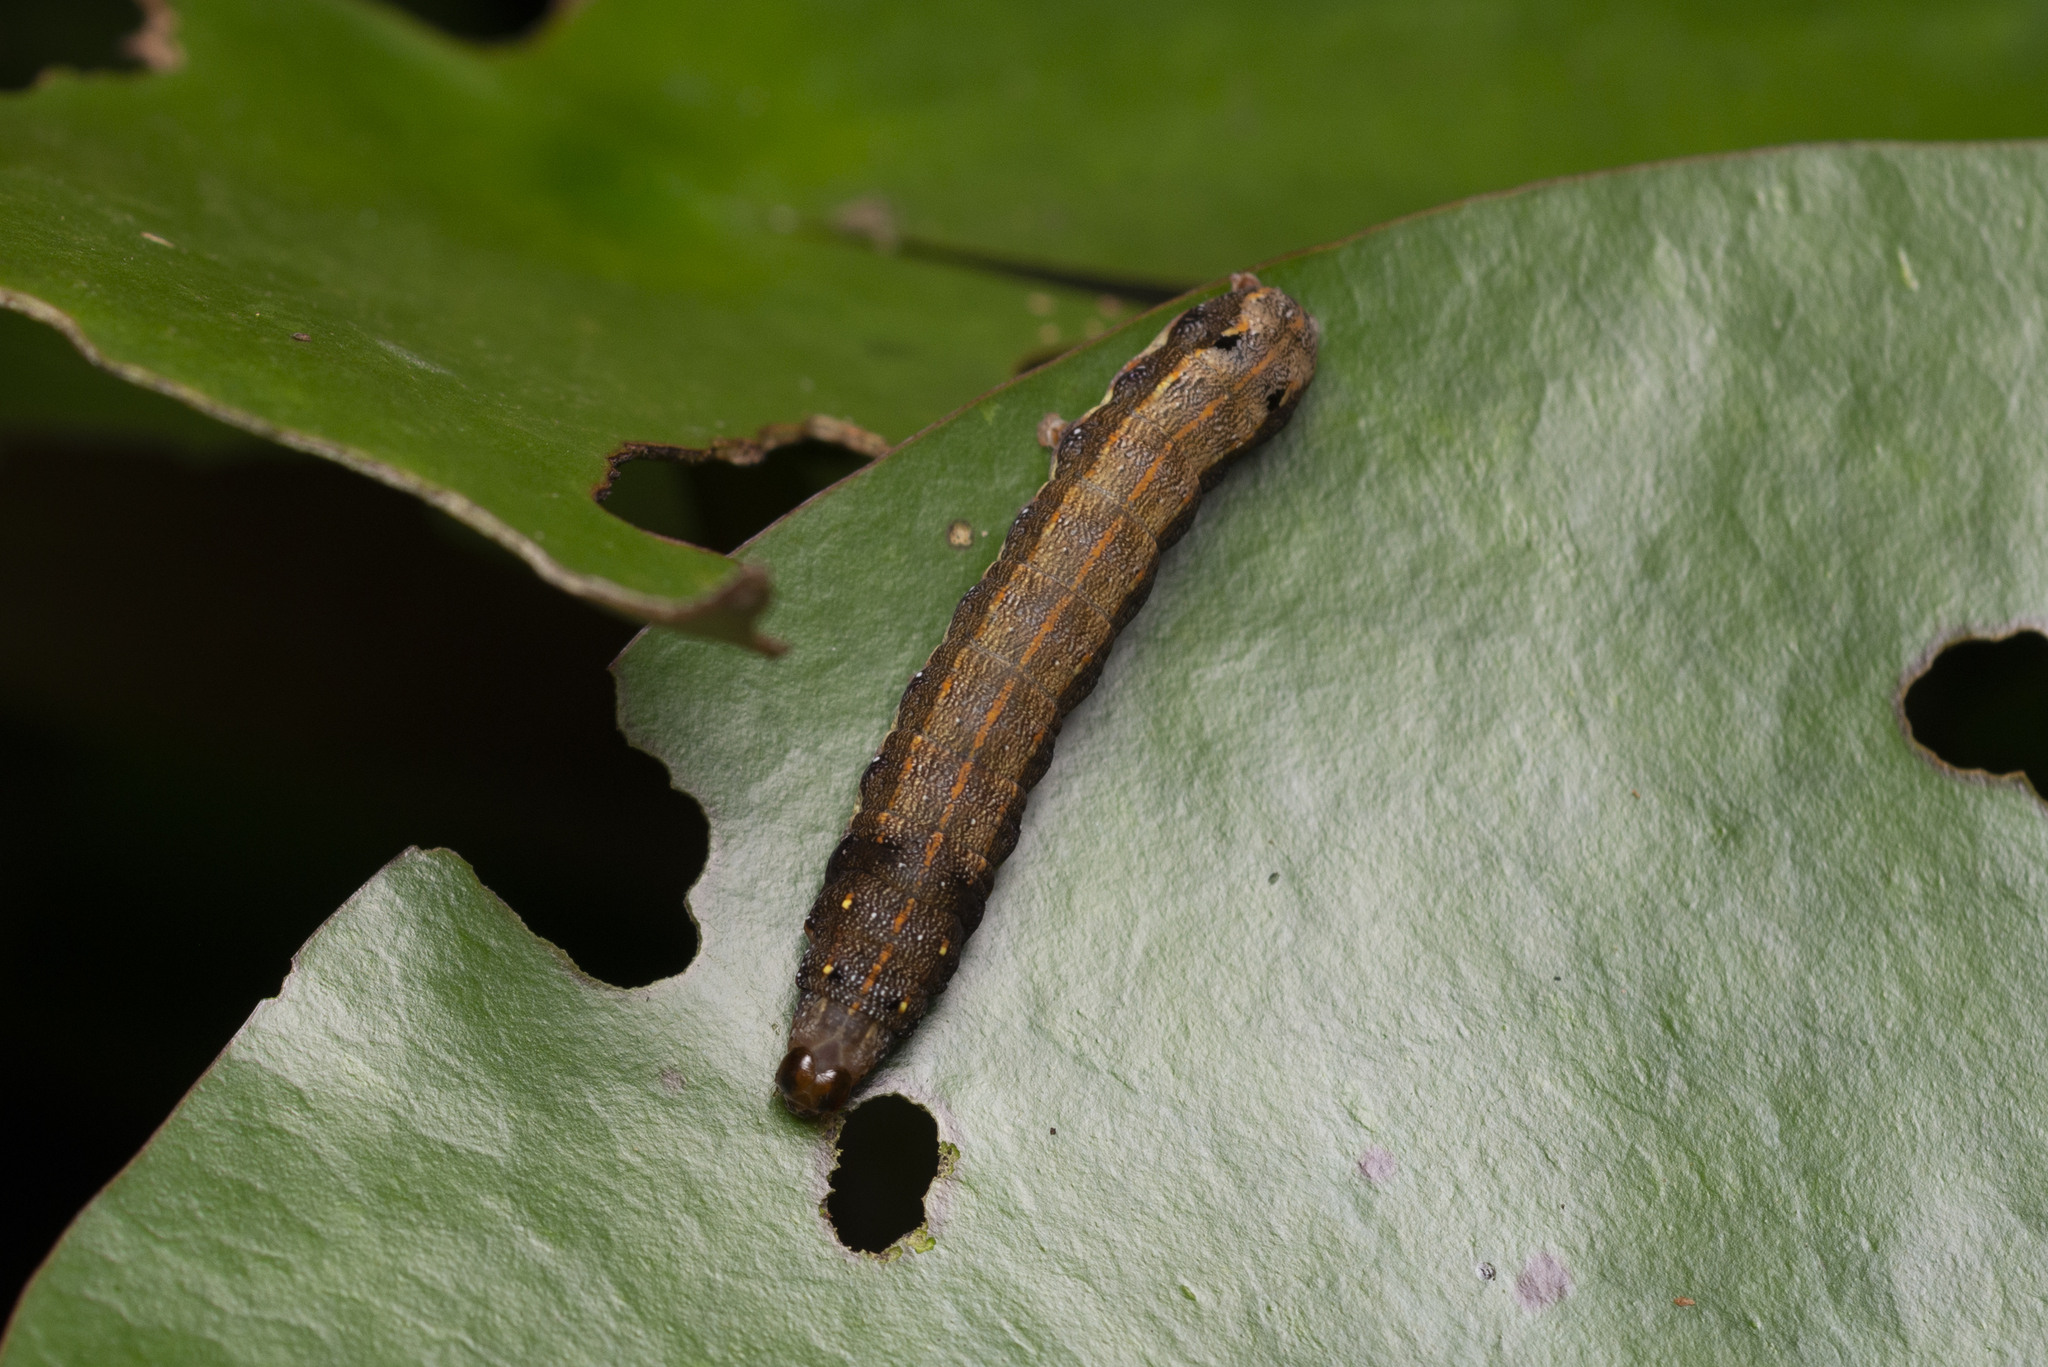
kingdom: Animalia
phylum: Arthropoda
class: Insecta
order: Lepidoptera
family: Noctuidae
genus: Spodoptera
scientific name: Spodoptera litura
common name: Asian cotton leafworm
